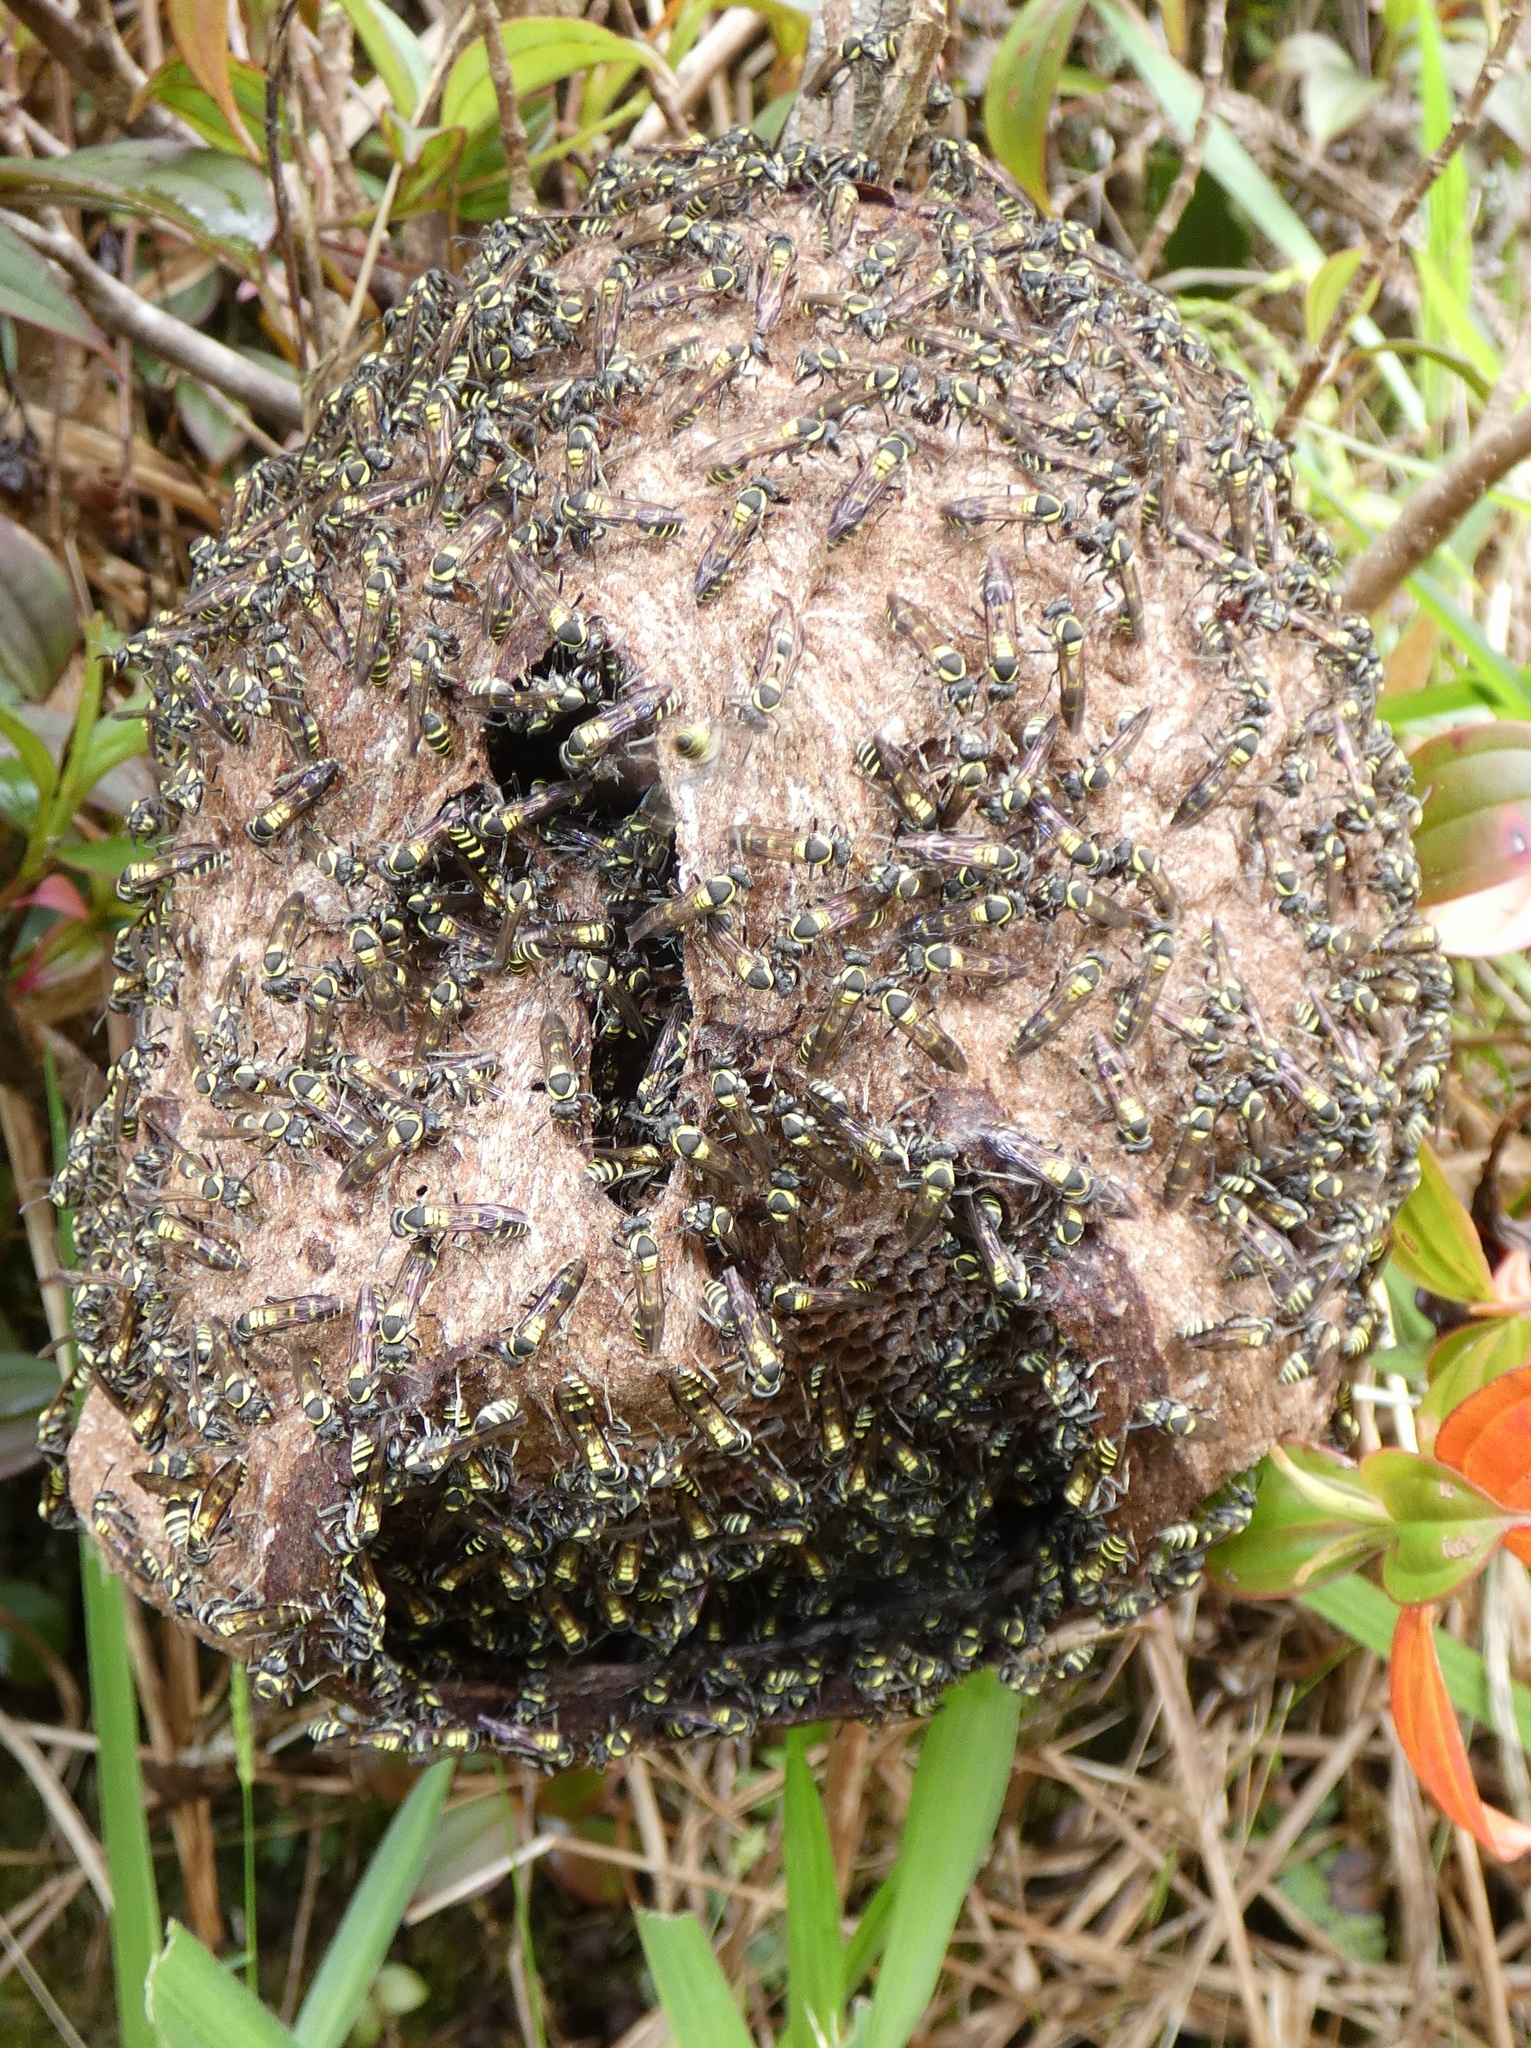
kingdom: Animalia
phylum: Arthropoda
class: Insecta
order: Hymenoptera
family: Eumenidae
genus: Polybia
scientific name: Polybia occidentalis
